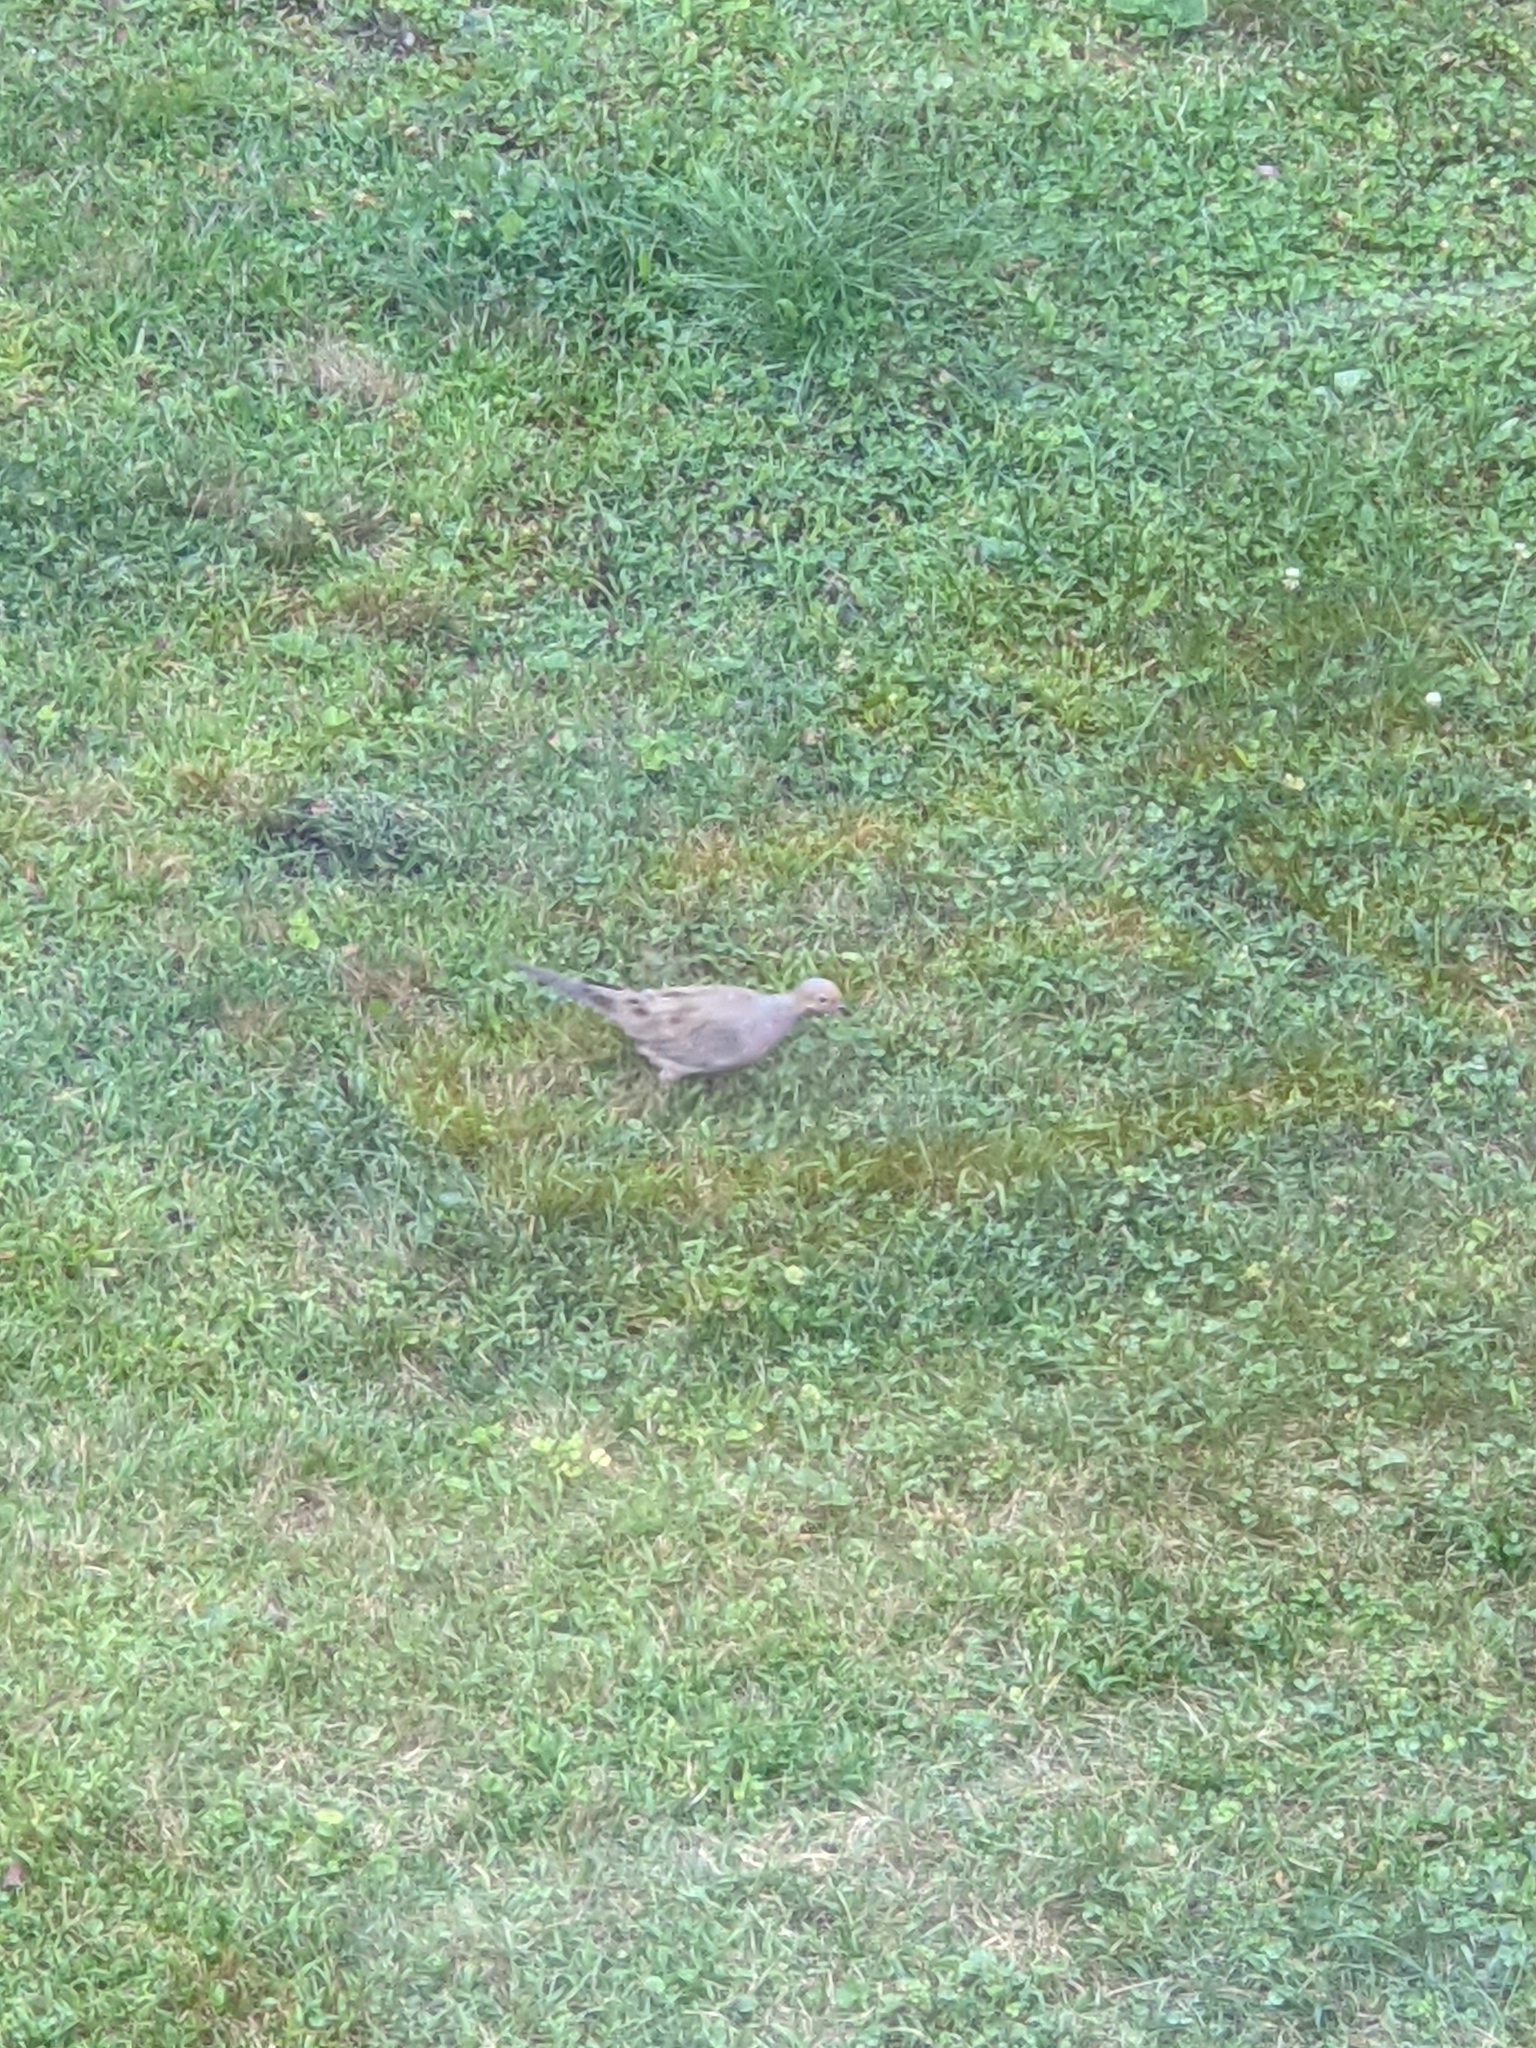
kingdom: Animalia
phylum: Chordata
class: Aves
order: Columbiformes
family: Columbidae
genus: Zenaida
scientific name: Zenaida macroura
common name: Mourning dove
